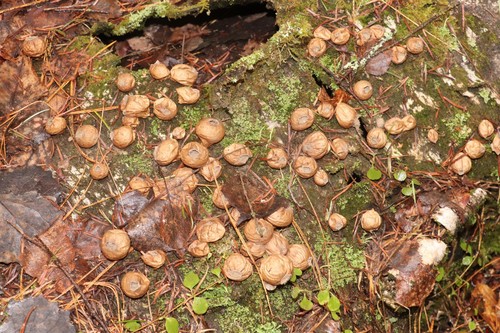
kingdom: Fungi
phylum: Basidiomycota
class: Agaricomycetes
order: Agaricales
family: Lycoperdaceae
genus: Apioperdon
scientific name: Apioperdon pyriforme
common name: Pear-shaped puffball
